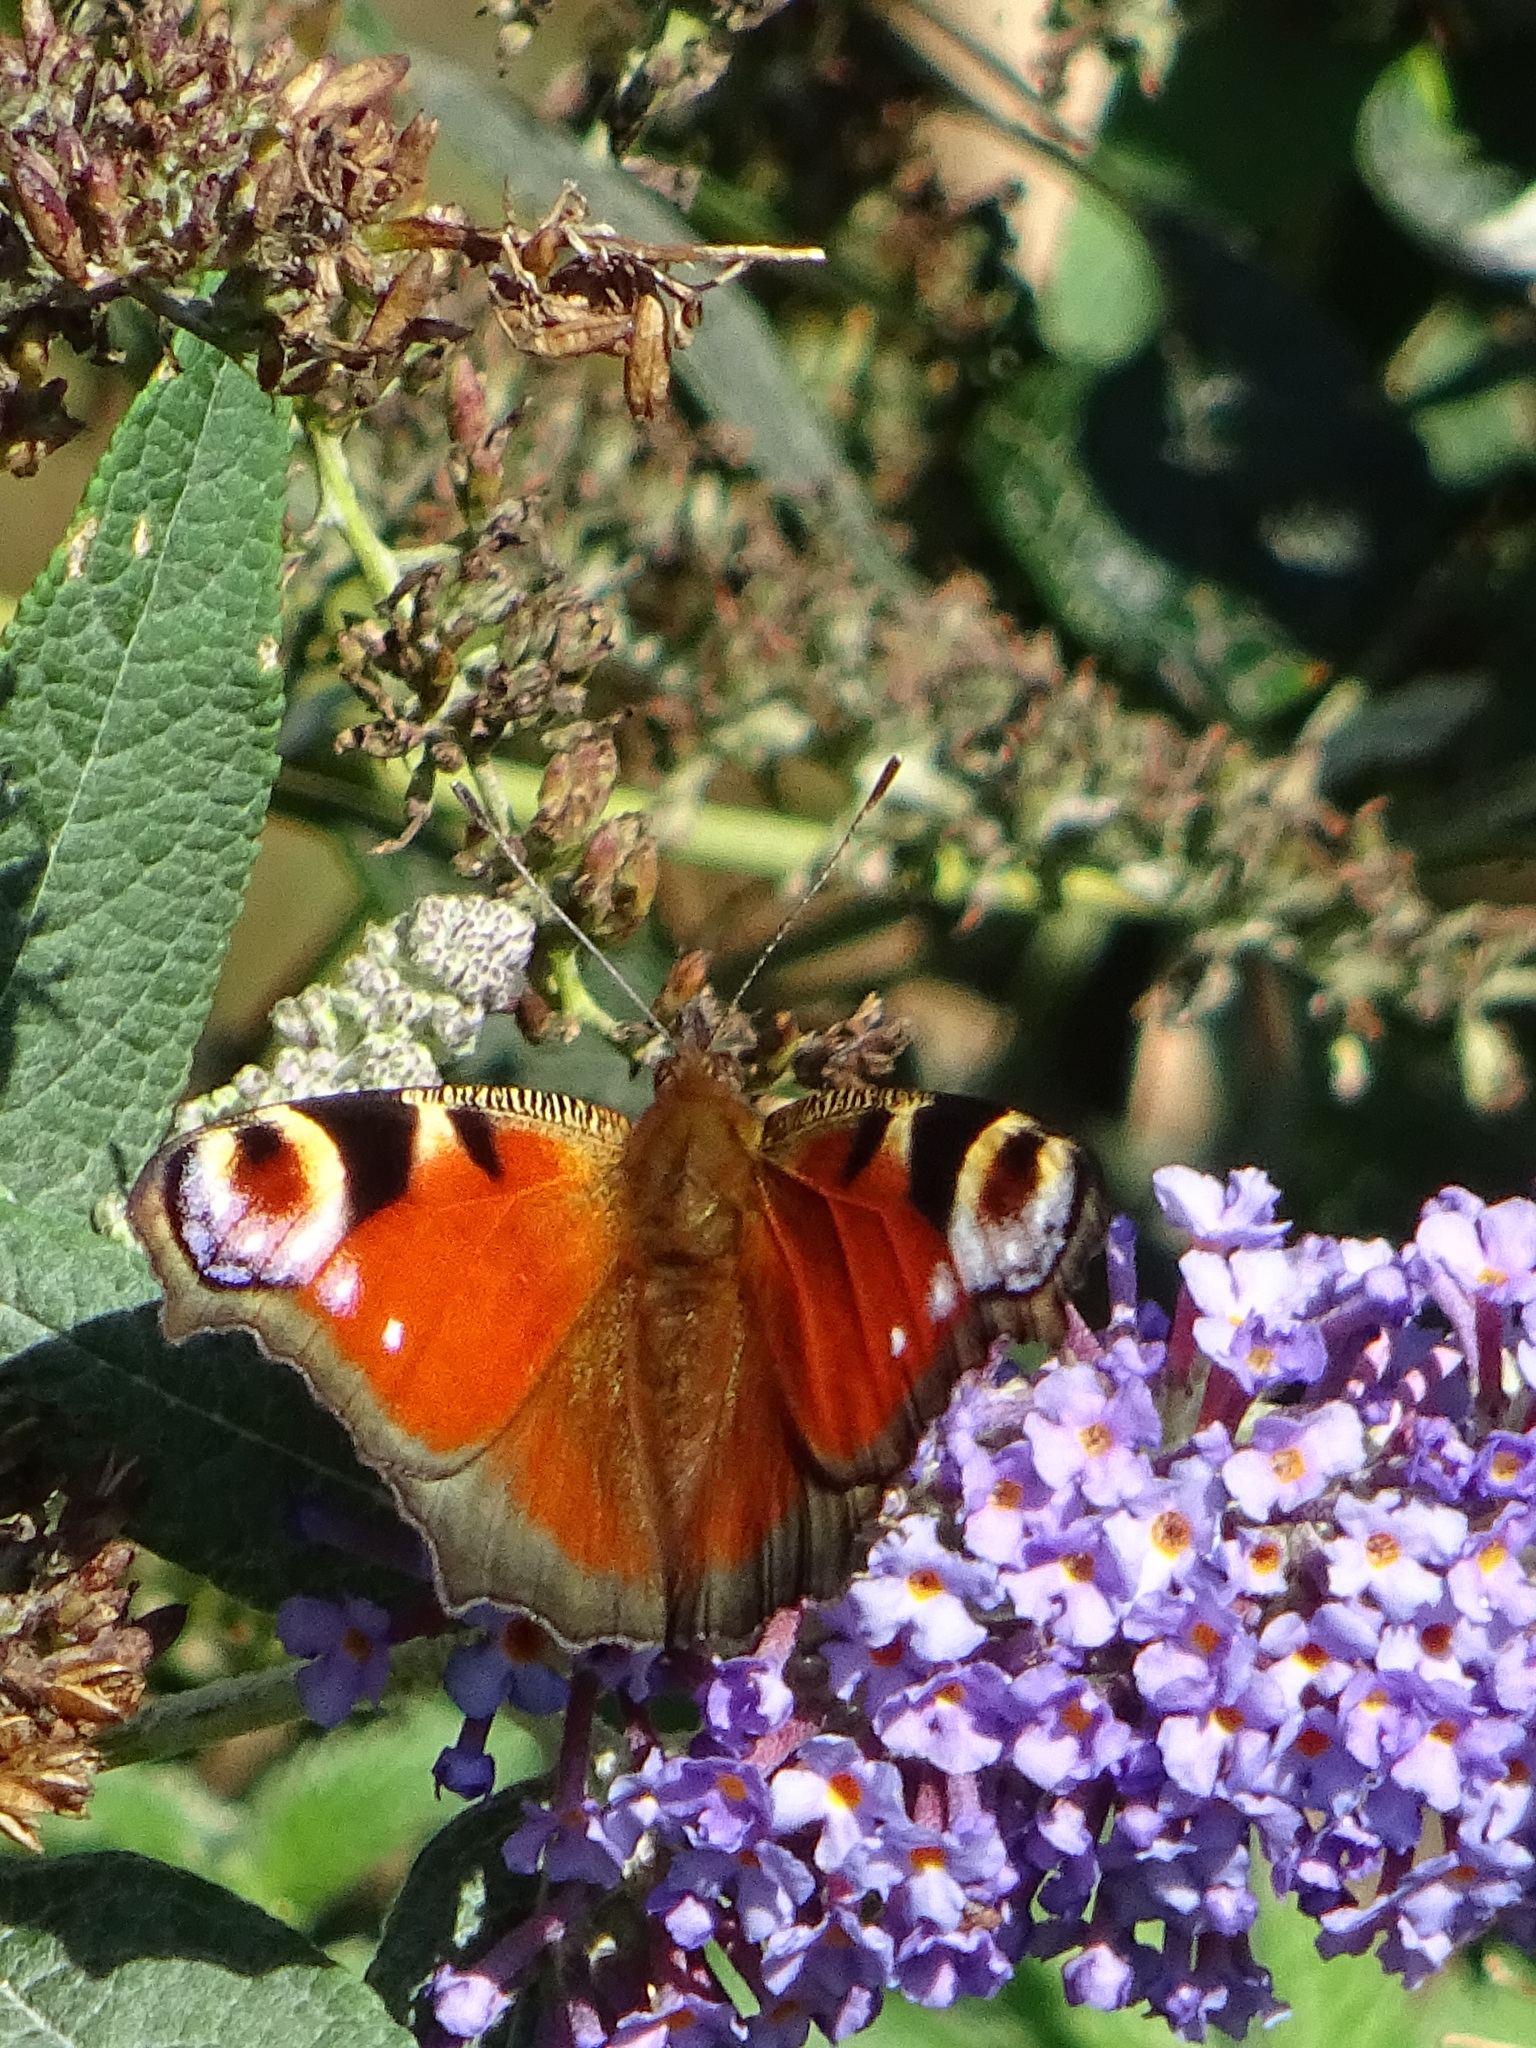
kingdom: Animalia
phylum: Arthropoda
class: Insecta
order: Lepidoptera
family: Nymphalidae
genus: Aglais
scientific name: Aglais io
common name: Peacock
